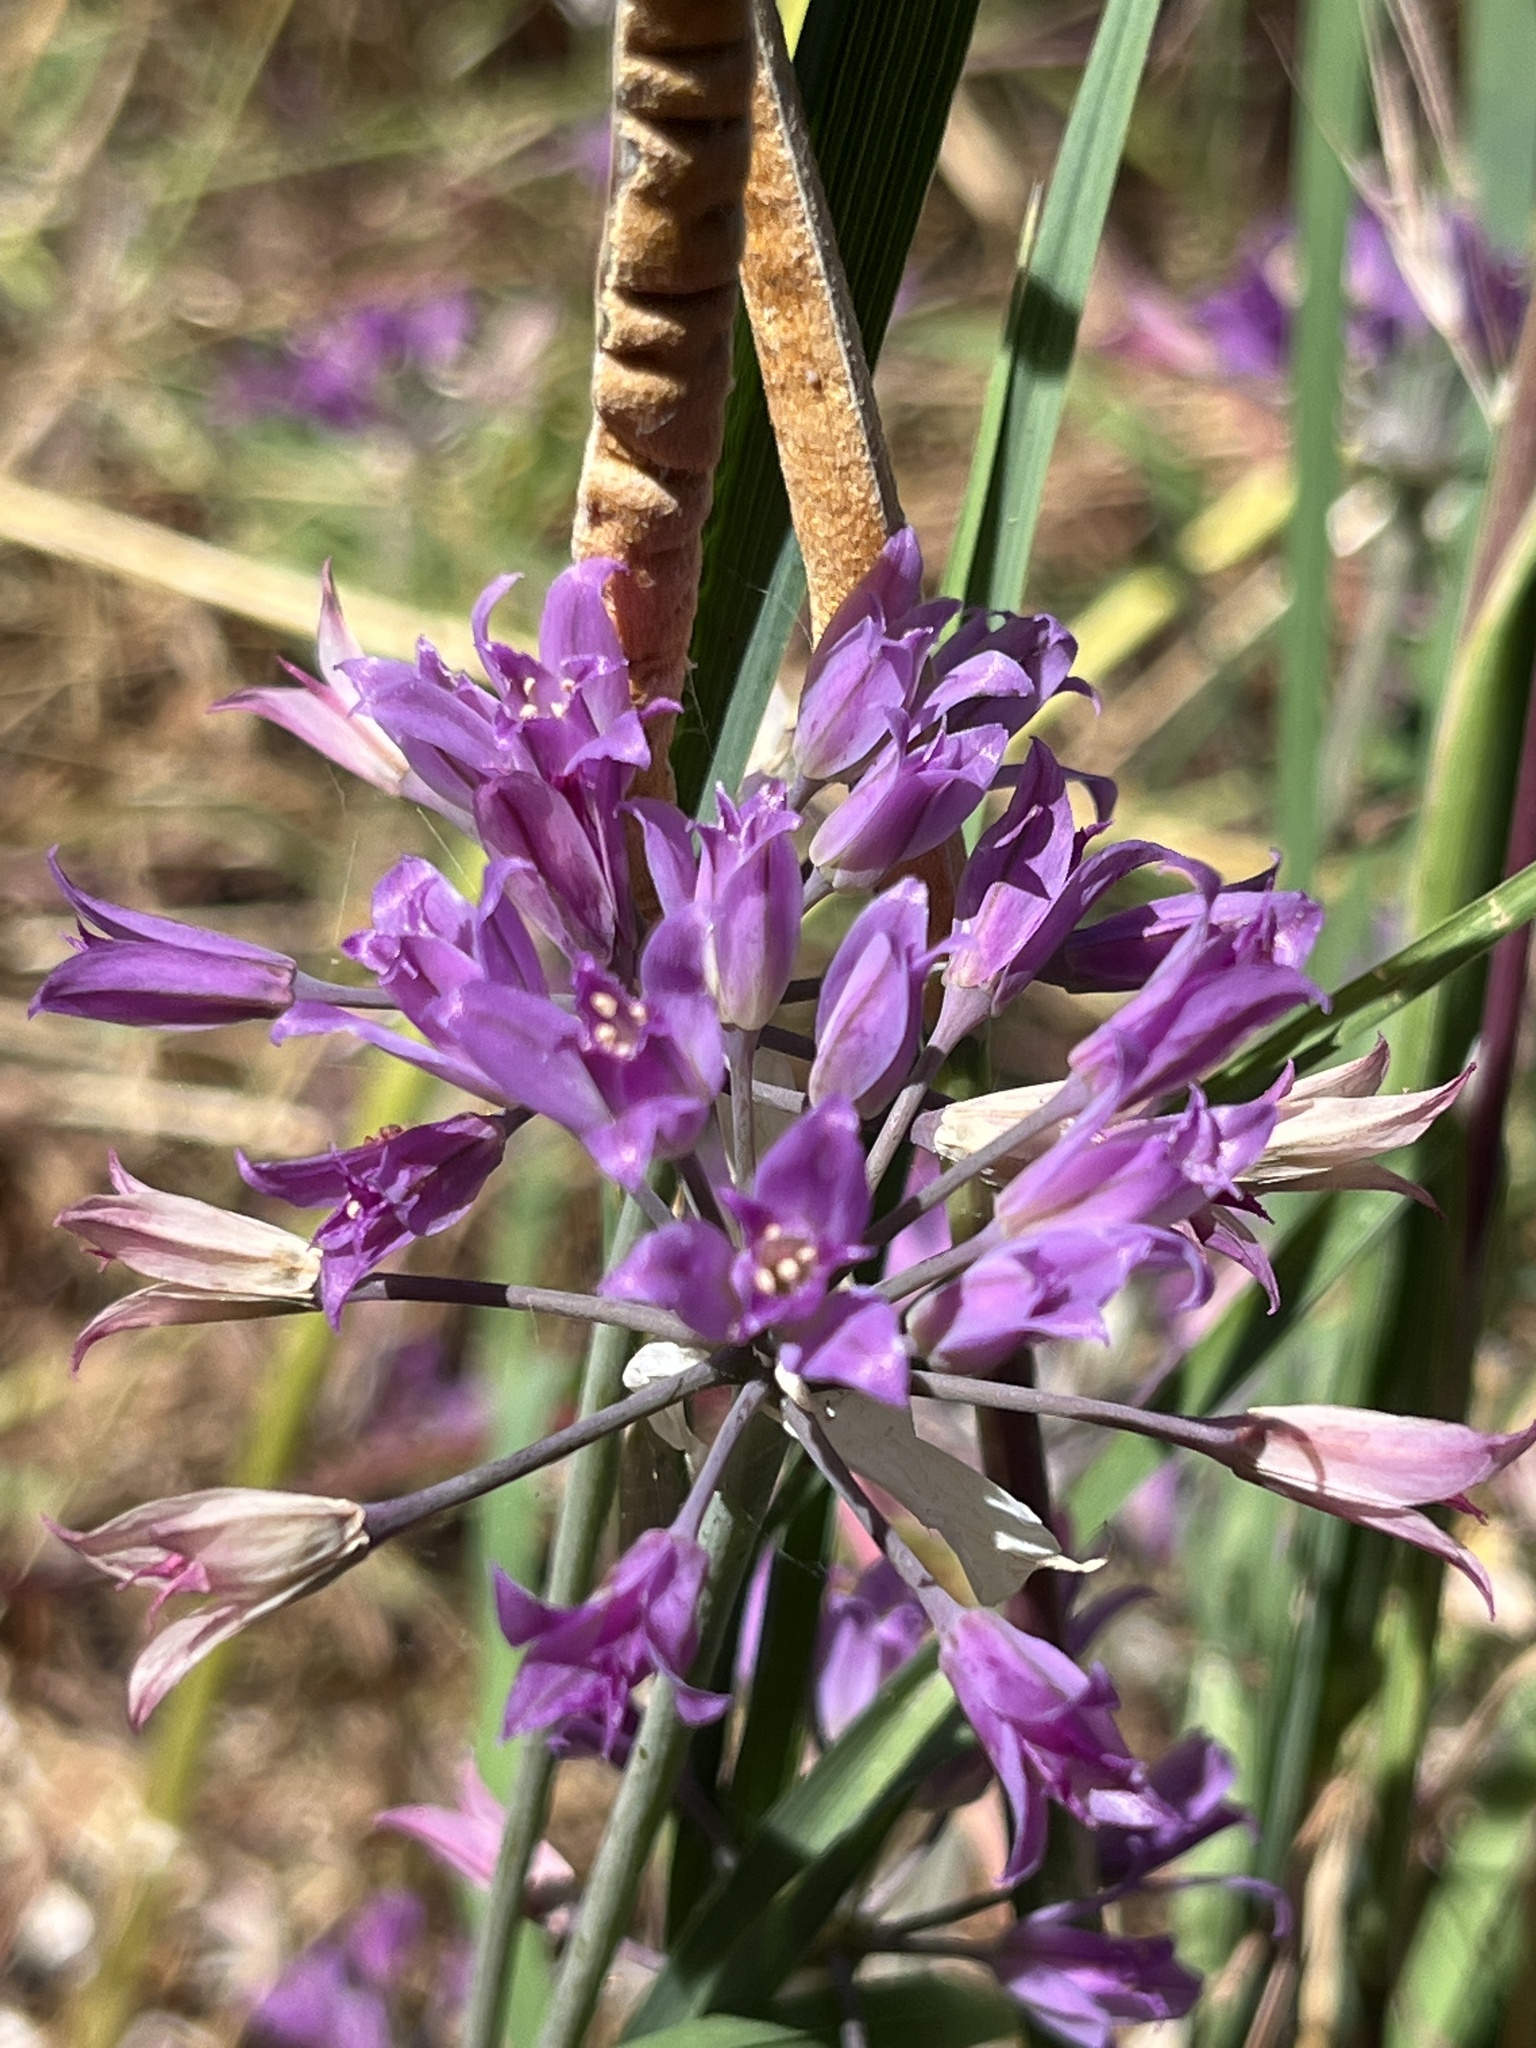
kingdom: Plantae
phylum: Tracheophyta
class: Liliopsida
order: Asparagales
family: Amaryllidaceae
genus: Allium
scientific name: Allium acuminatum
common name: Hooker's onion
